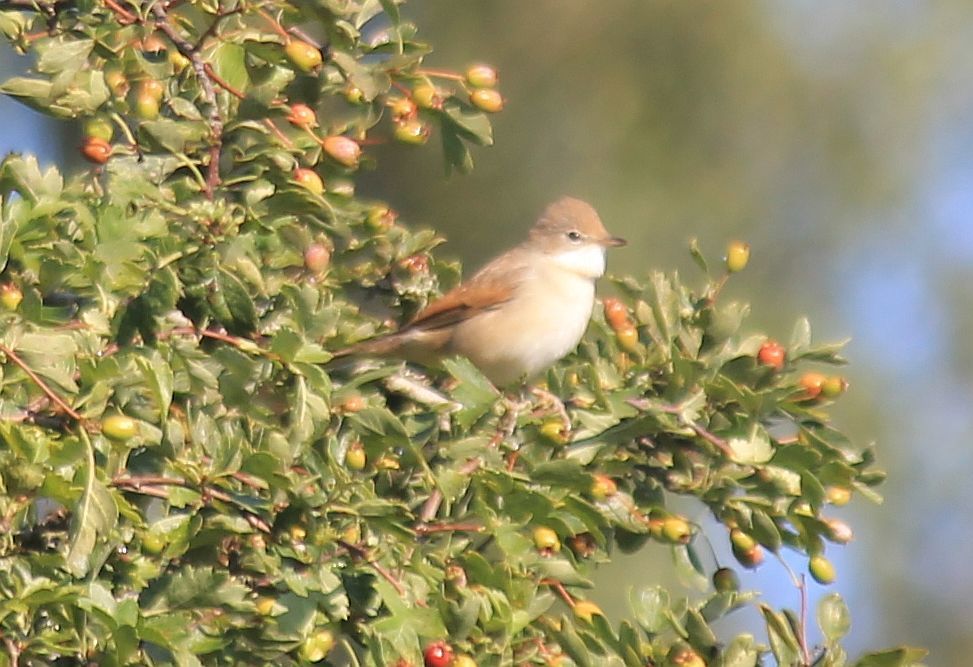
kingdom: Animalia
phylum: Chordata
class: Aves
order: Passeriformes
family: Sylviidae
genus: Sylvia
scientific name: Sylvia communis
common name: Common whitethroat
